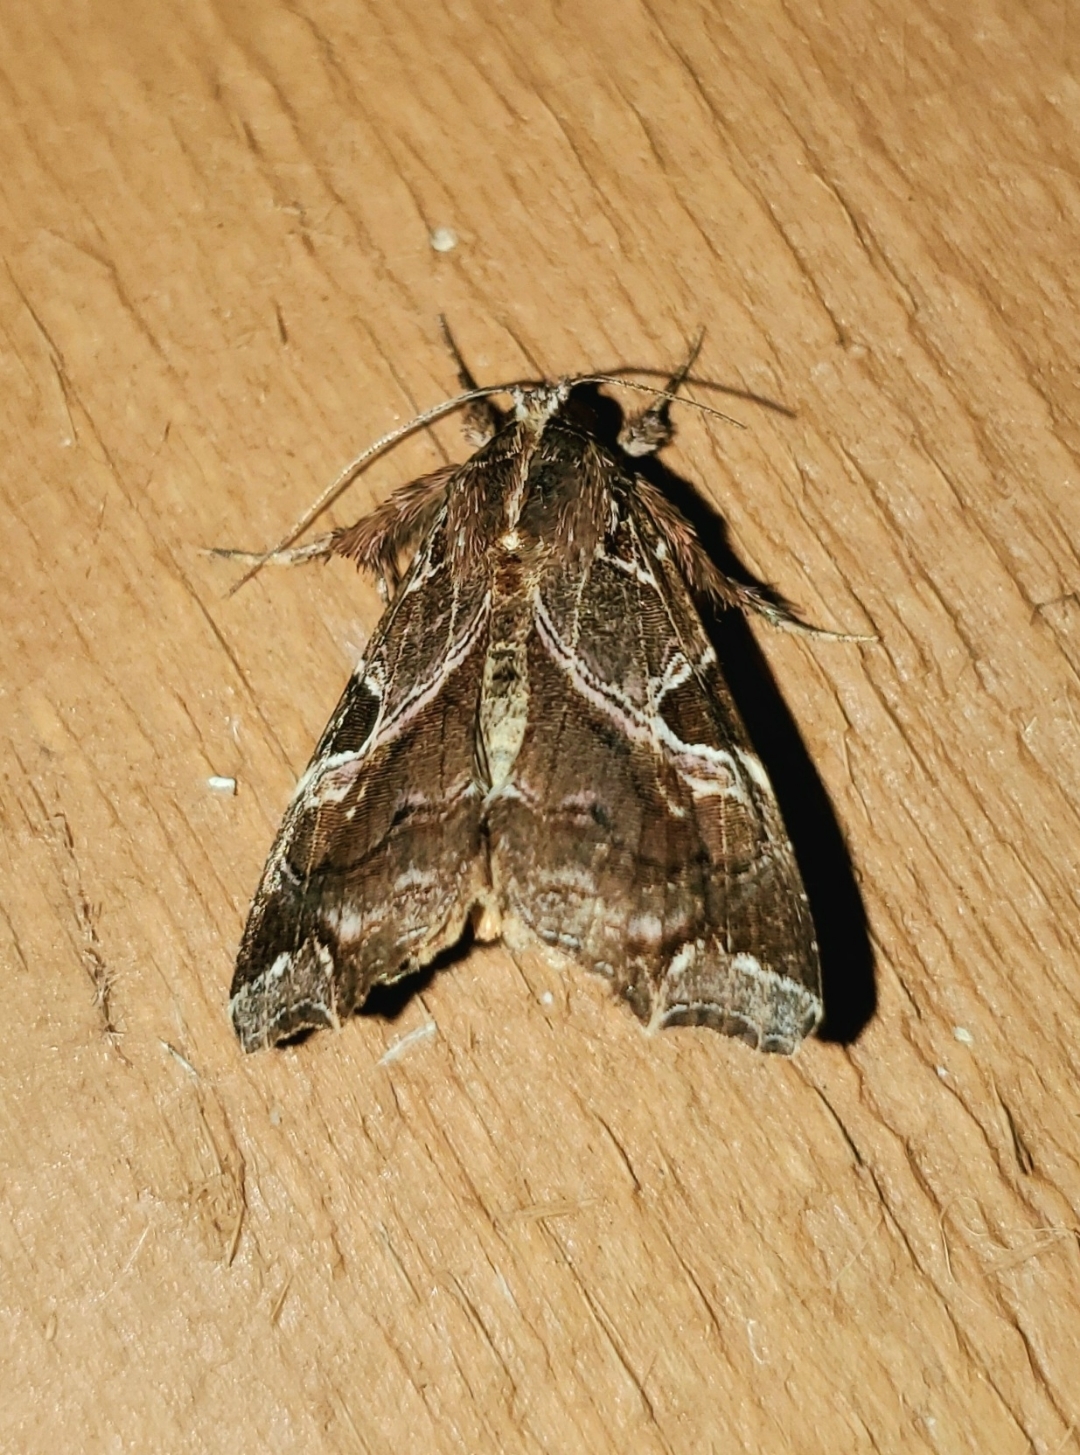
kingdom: Animalia
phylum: Arthropoda
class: Insecta
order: Lepidoptera
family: Noctuidae
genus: Callopistria
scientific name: Callopistria floridensis
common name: Florida fern moth
